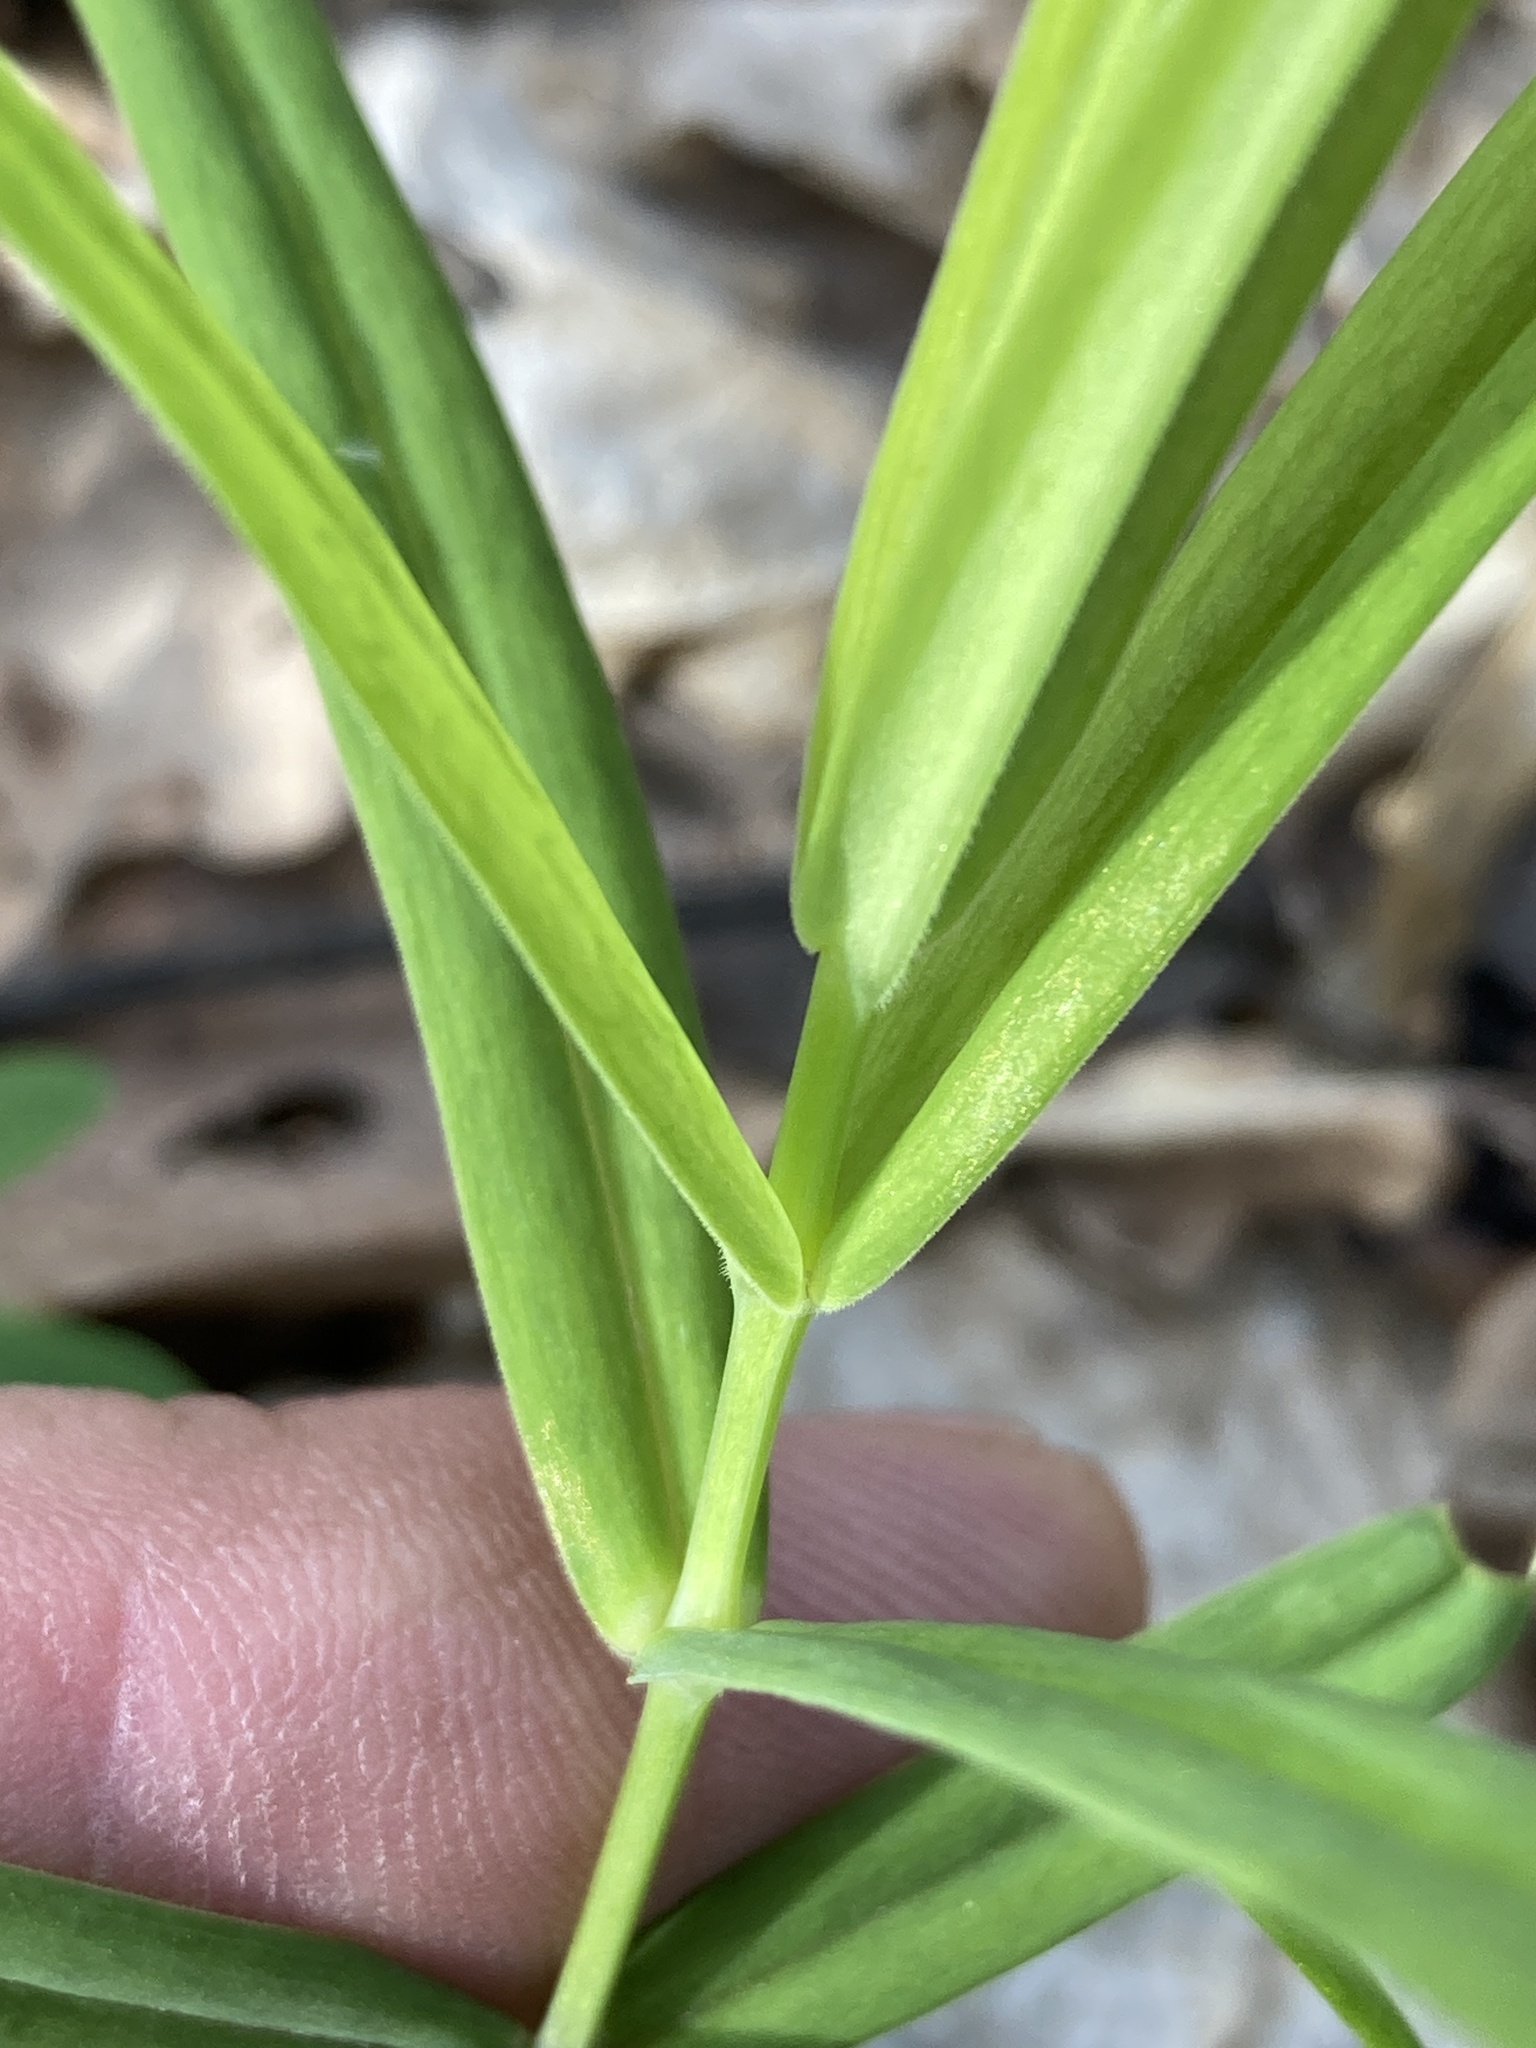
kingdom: Plantae
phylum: Tracheophyta
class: Magnoliopsida
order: Caryophyllales
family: Caryophyllaceae
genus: Rabelera
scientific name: Rabelera holostea
